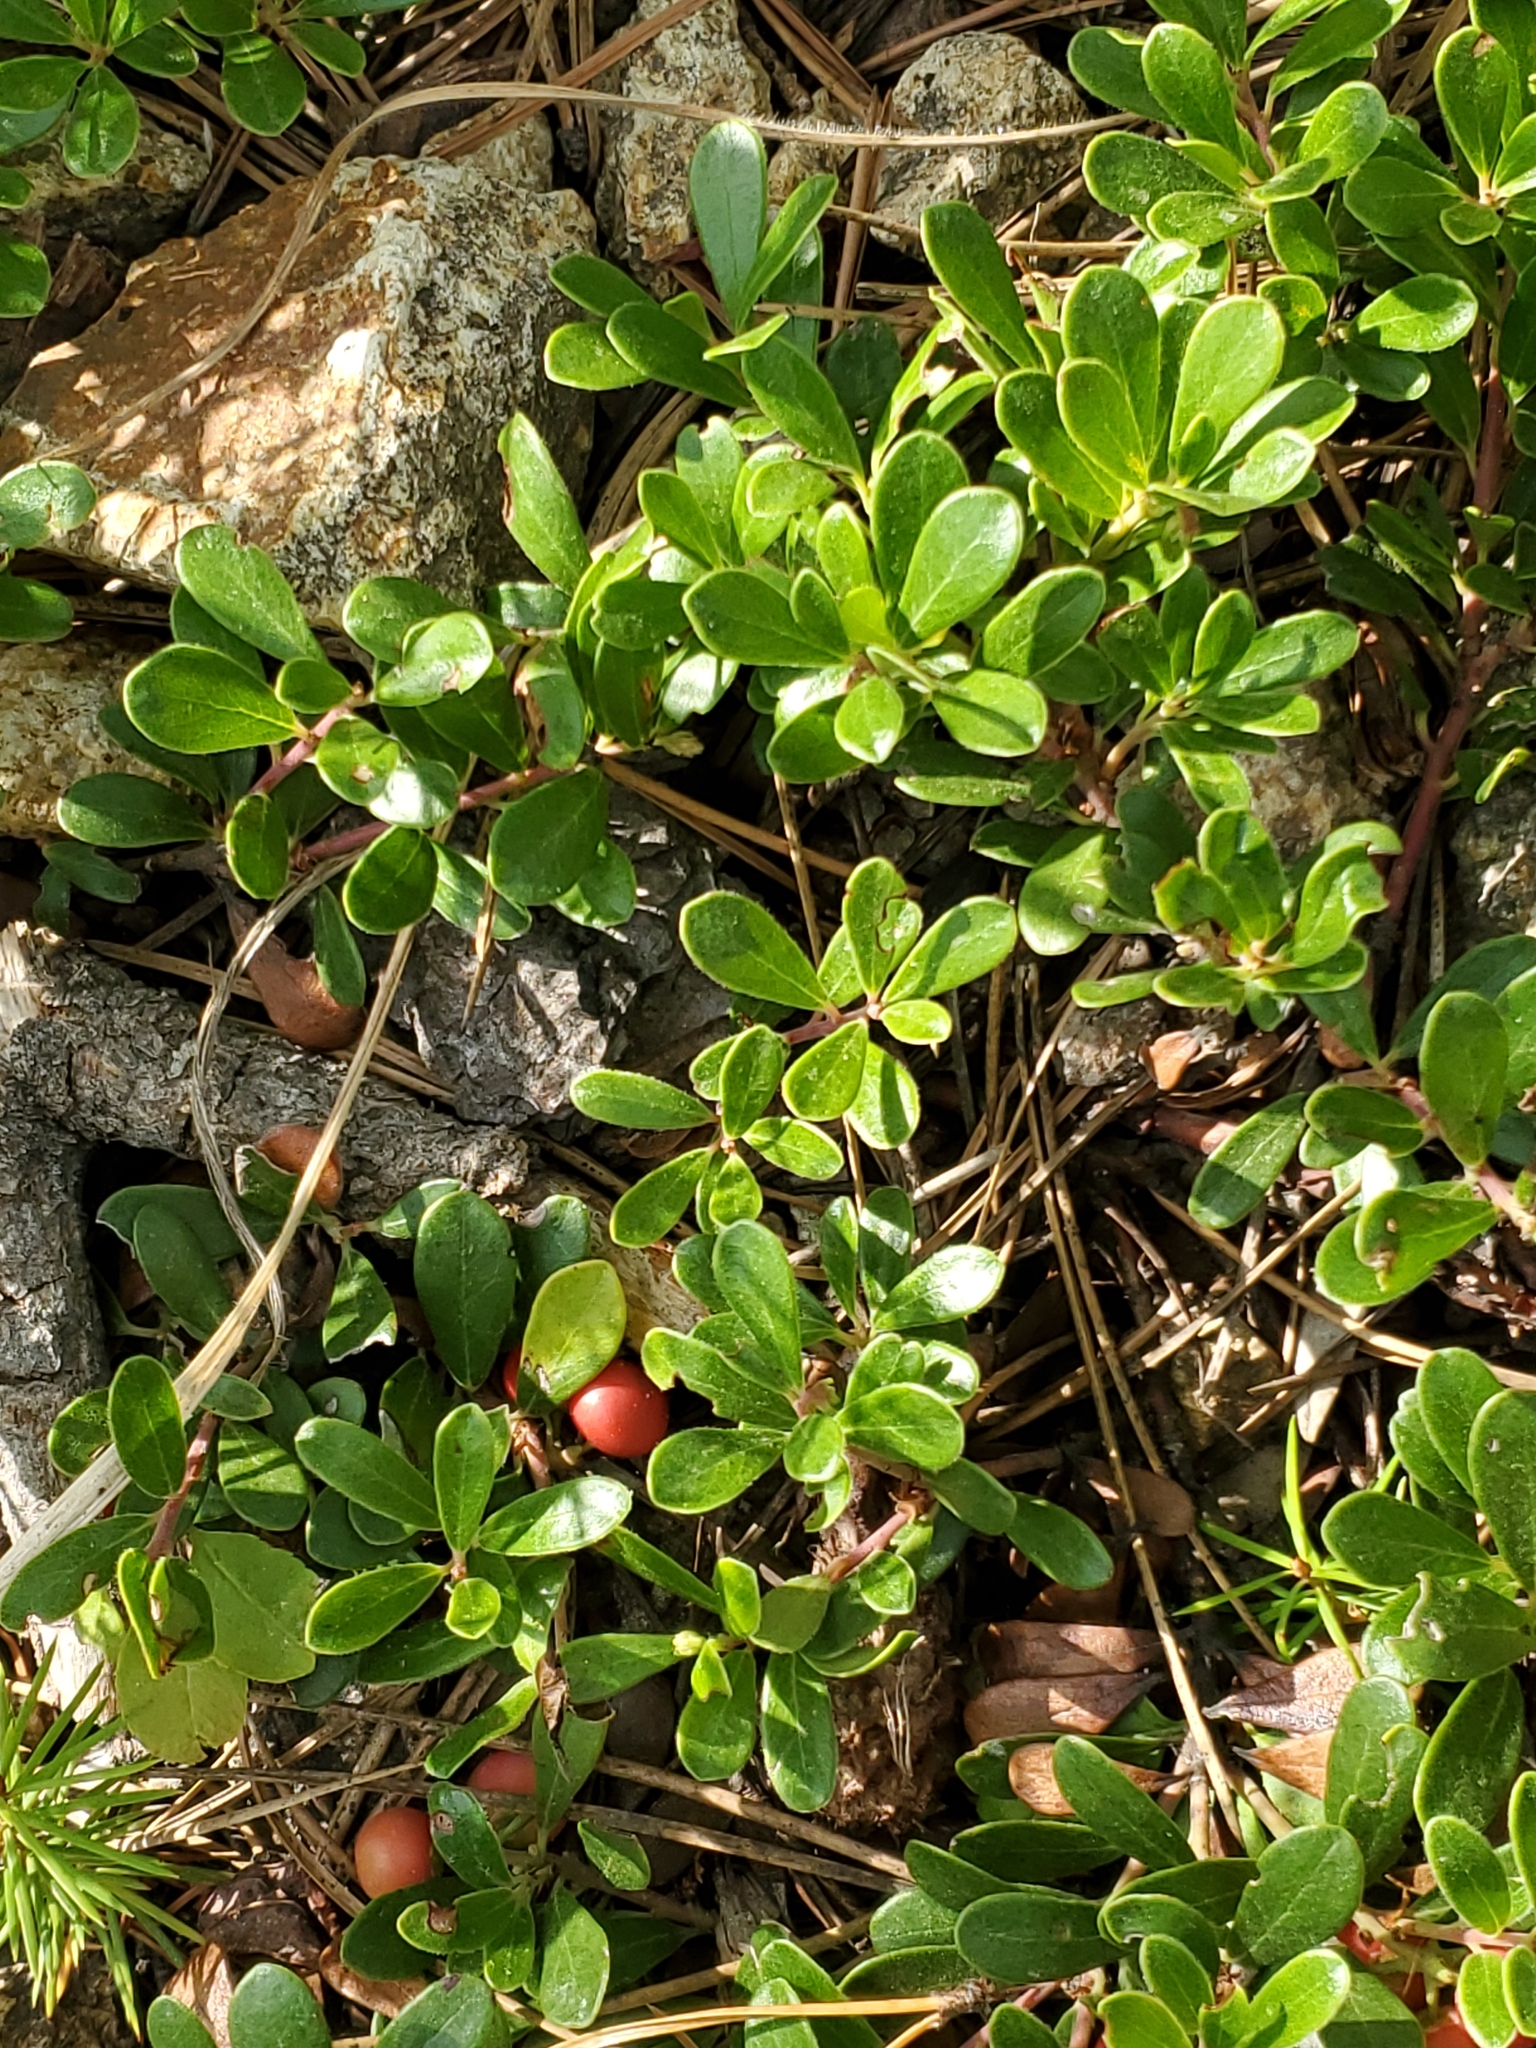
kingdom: Plantae
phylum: Tracheophyta
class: Magnoliopsida
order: Ericales
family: Ericaceae
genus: Arctostaphylos
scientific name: Arctostaphylos uva-ursi
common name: Bearberry
